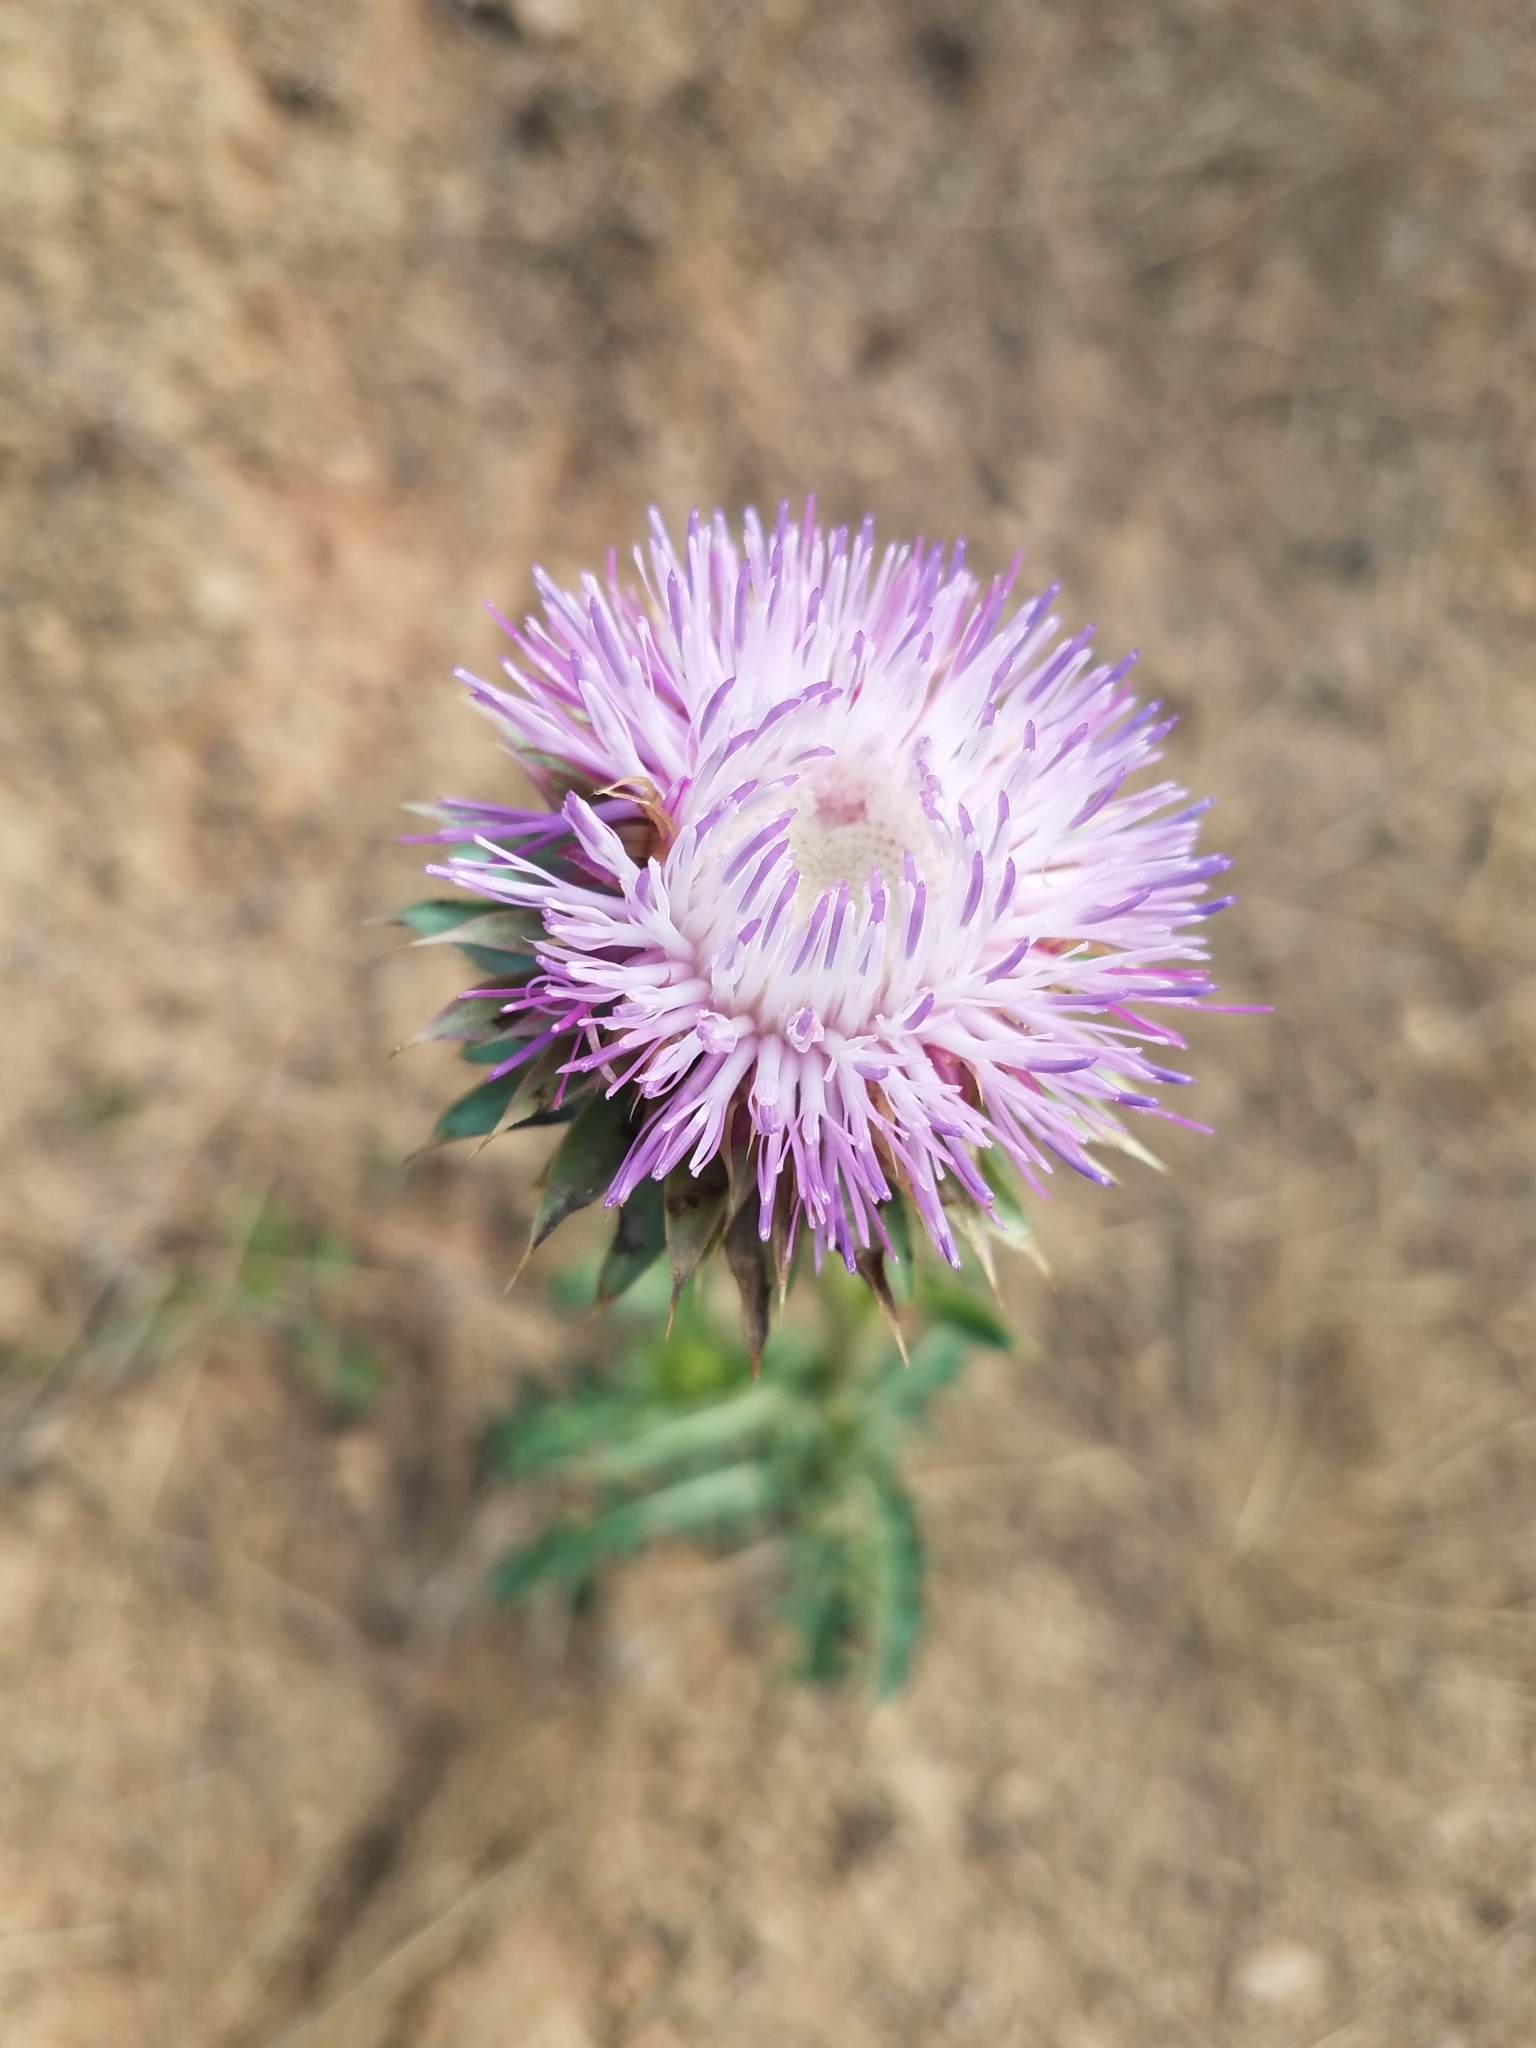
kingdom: Plantae
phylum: Tracheophyta
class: Magnoliopsida
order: Asterales
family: Asteraceae
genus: Carduus
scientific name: Carduus nutans
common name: Musk thistle
